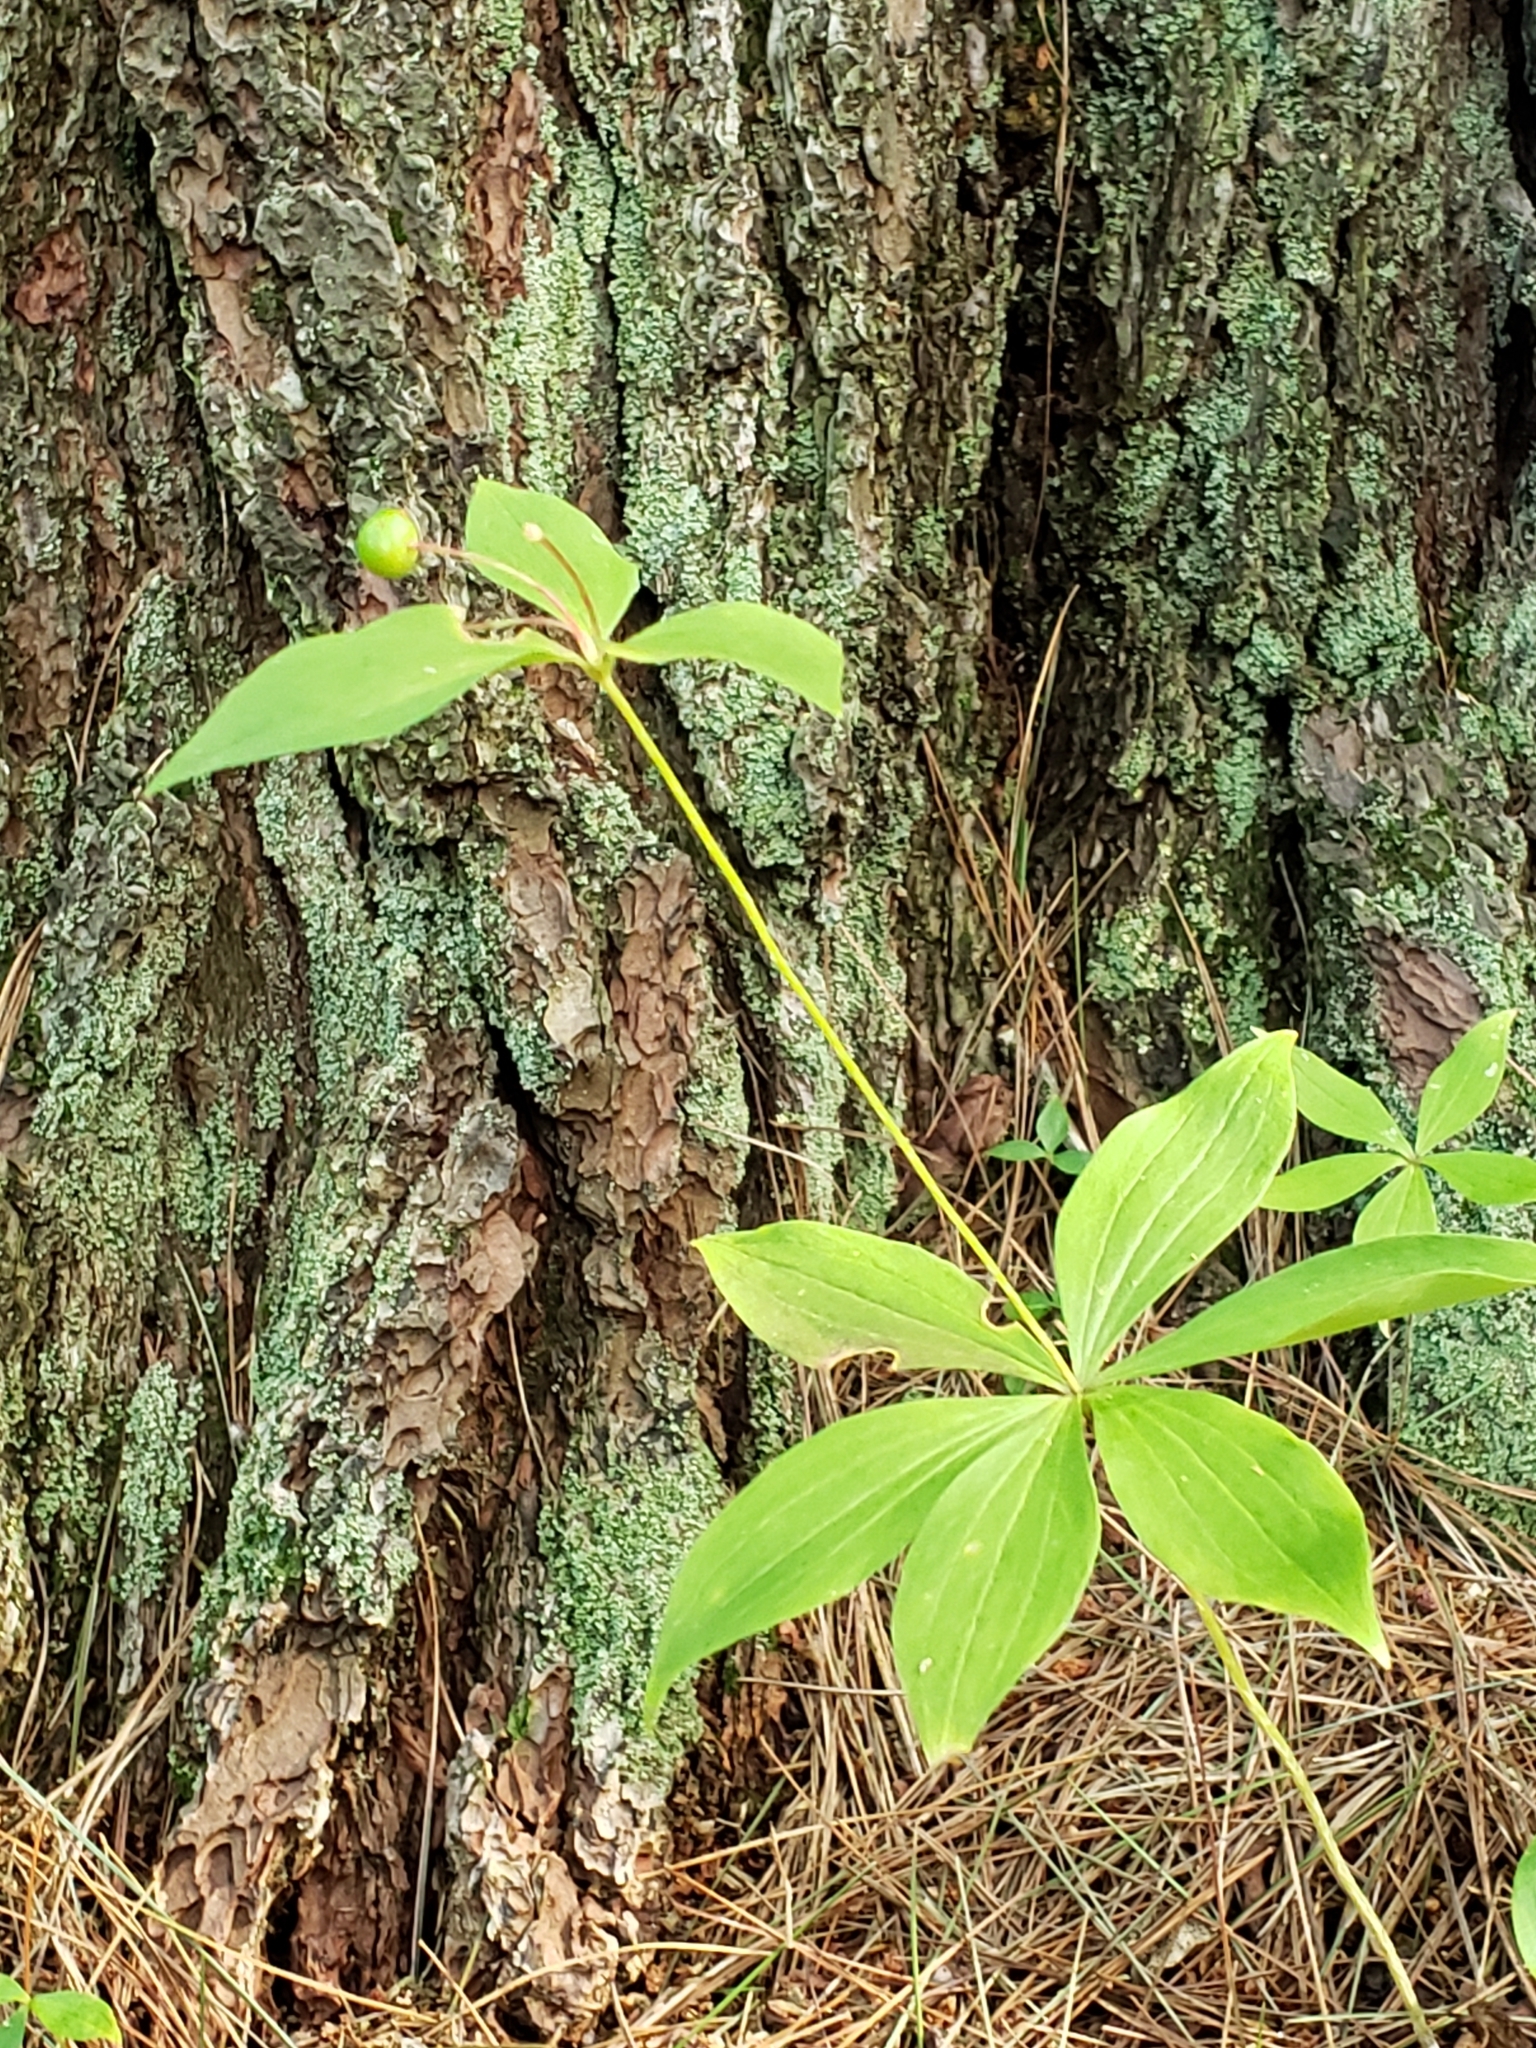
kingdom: Plantae
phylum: Tracheophyta
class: Liliopsida
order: Liliales
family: Liliaceae
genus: Medeola
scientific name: Medeola virginiana
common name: Indian cucumber-root
